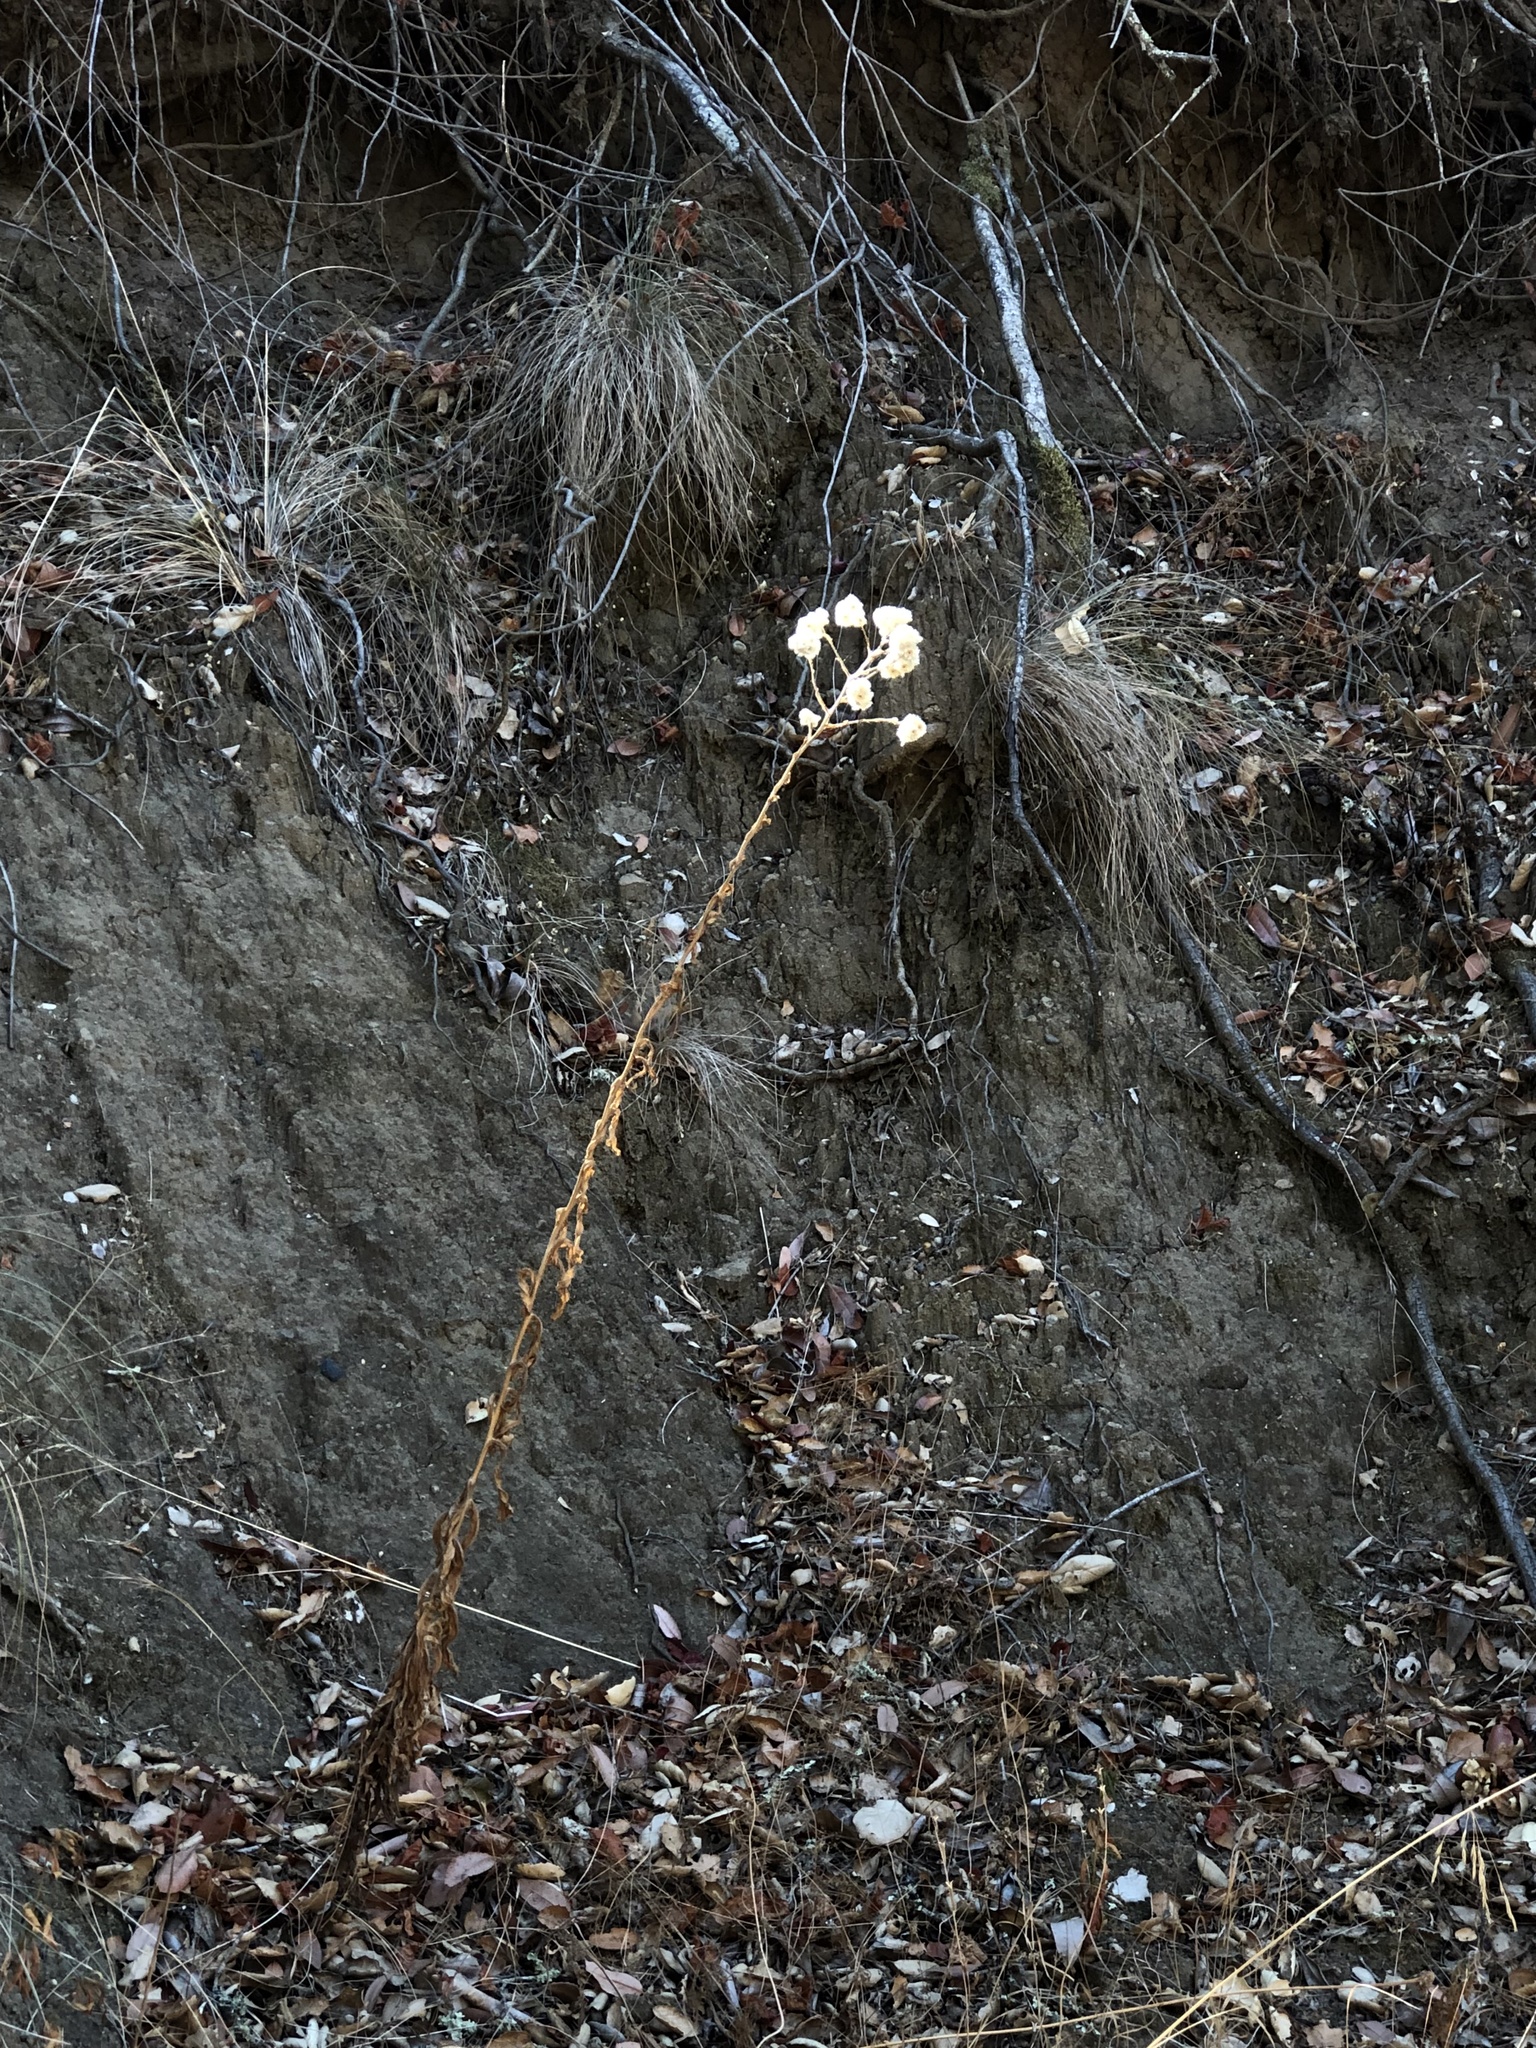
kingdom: Plantae
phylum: Tracheophyta
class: Magnoliopsida
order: Asterales
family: Asteraceae
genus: Pseudognaphalium
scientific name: Pseudognaphalium californicum
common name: California rabbit-tobacco
